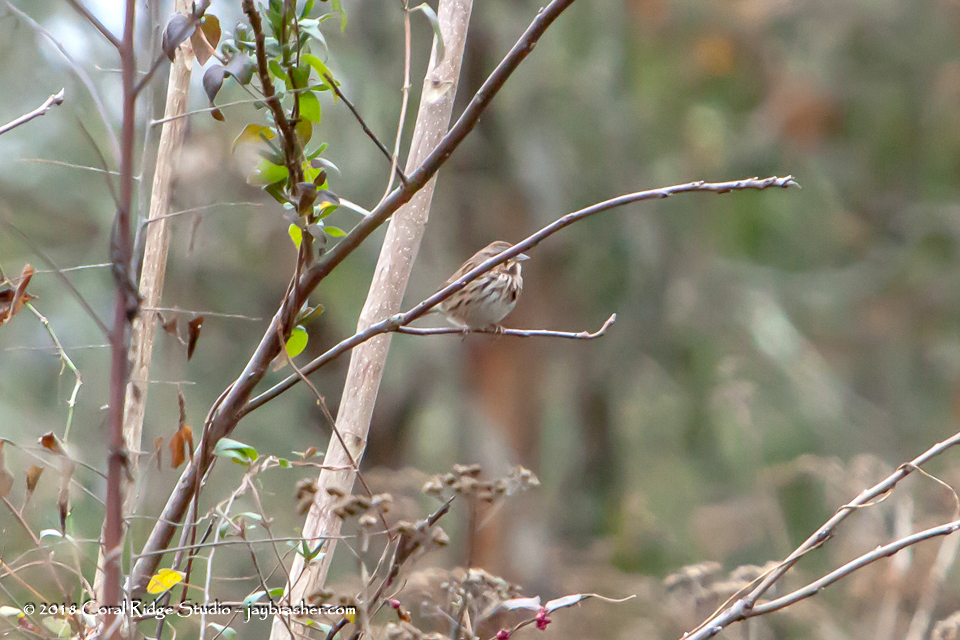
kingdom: Animalia
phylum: Chordata
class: Aves
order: Passeriformes
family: Passerellidae
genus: Melospiza
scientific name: Melospiza melodia
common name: Song sparrow
